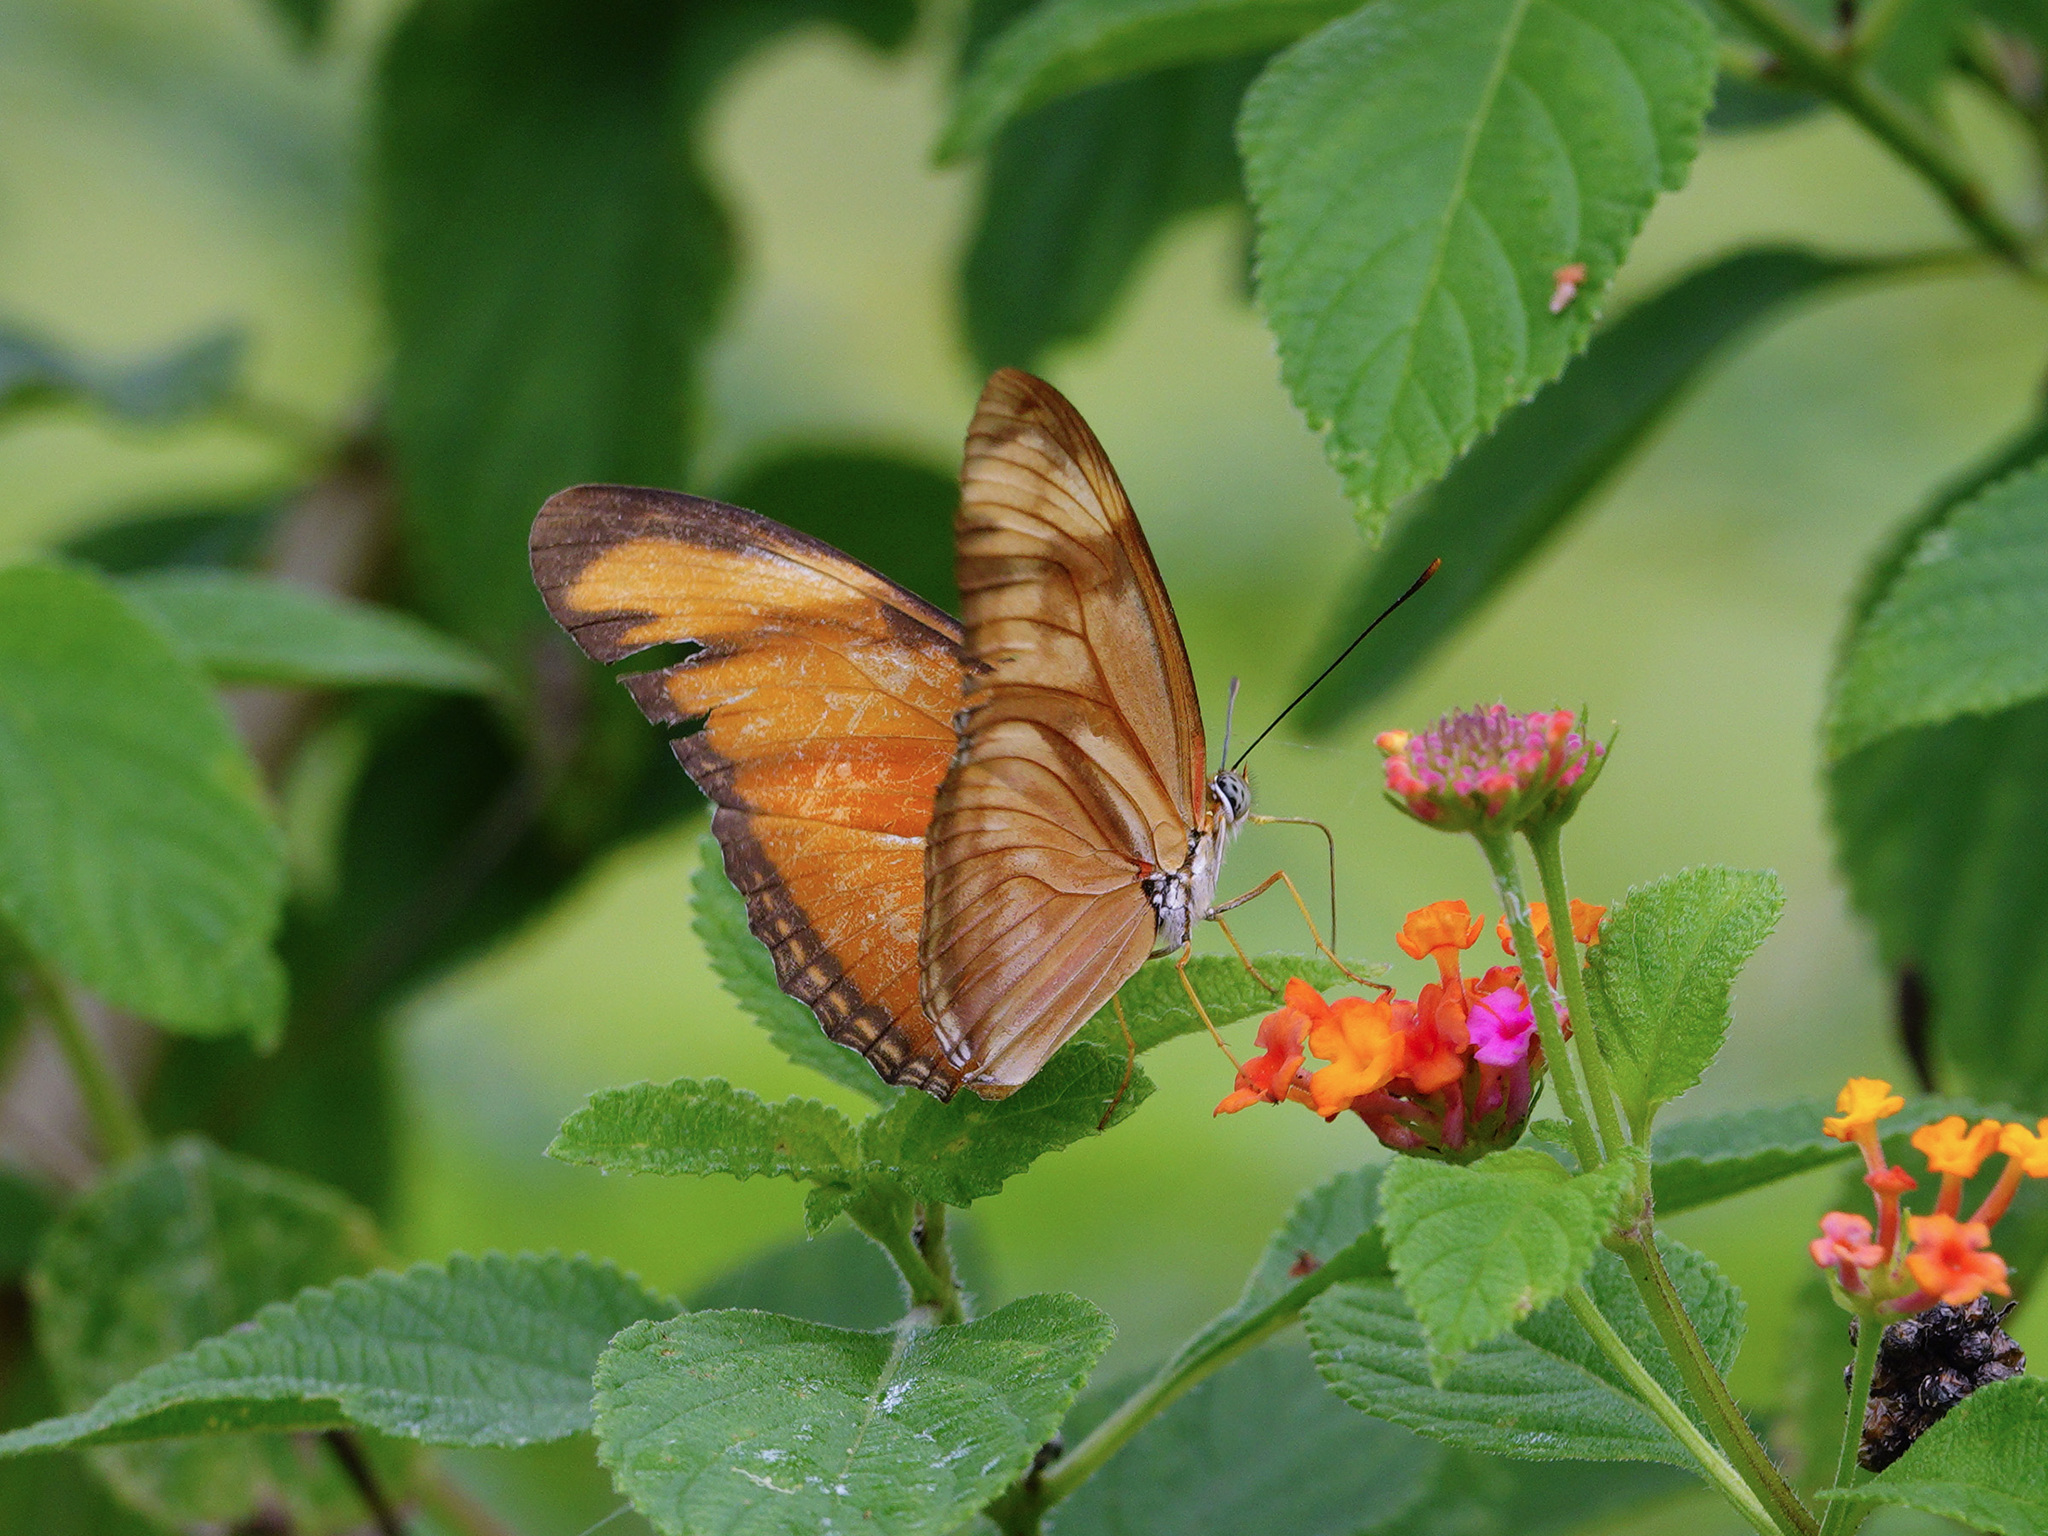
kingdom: Animalia
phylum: Arthropoda
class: Insecta
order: Lepidoptera
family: Nymphalidae
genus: Dryas
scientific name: Dryas iulia
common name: Flambeau
